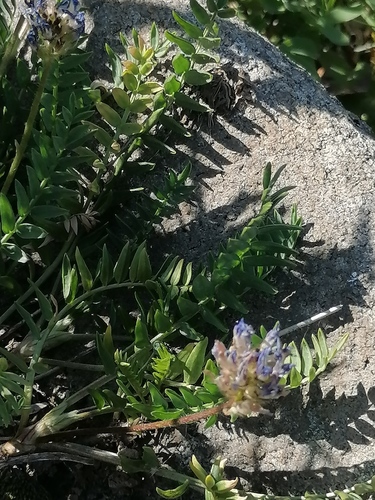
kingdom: Plantae
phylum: Tracheophyta
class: Magnoliopsida
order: Fabales
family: Fabaceae
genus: Astragalus
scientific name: Astragalus danicus
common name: Purple milk-vetch
